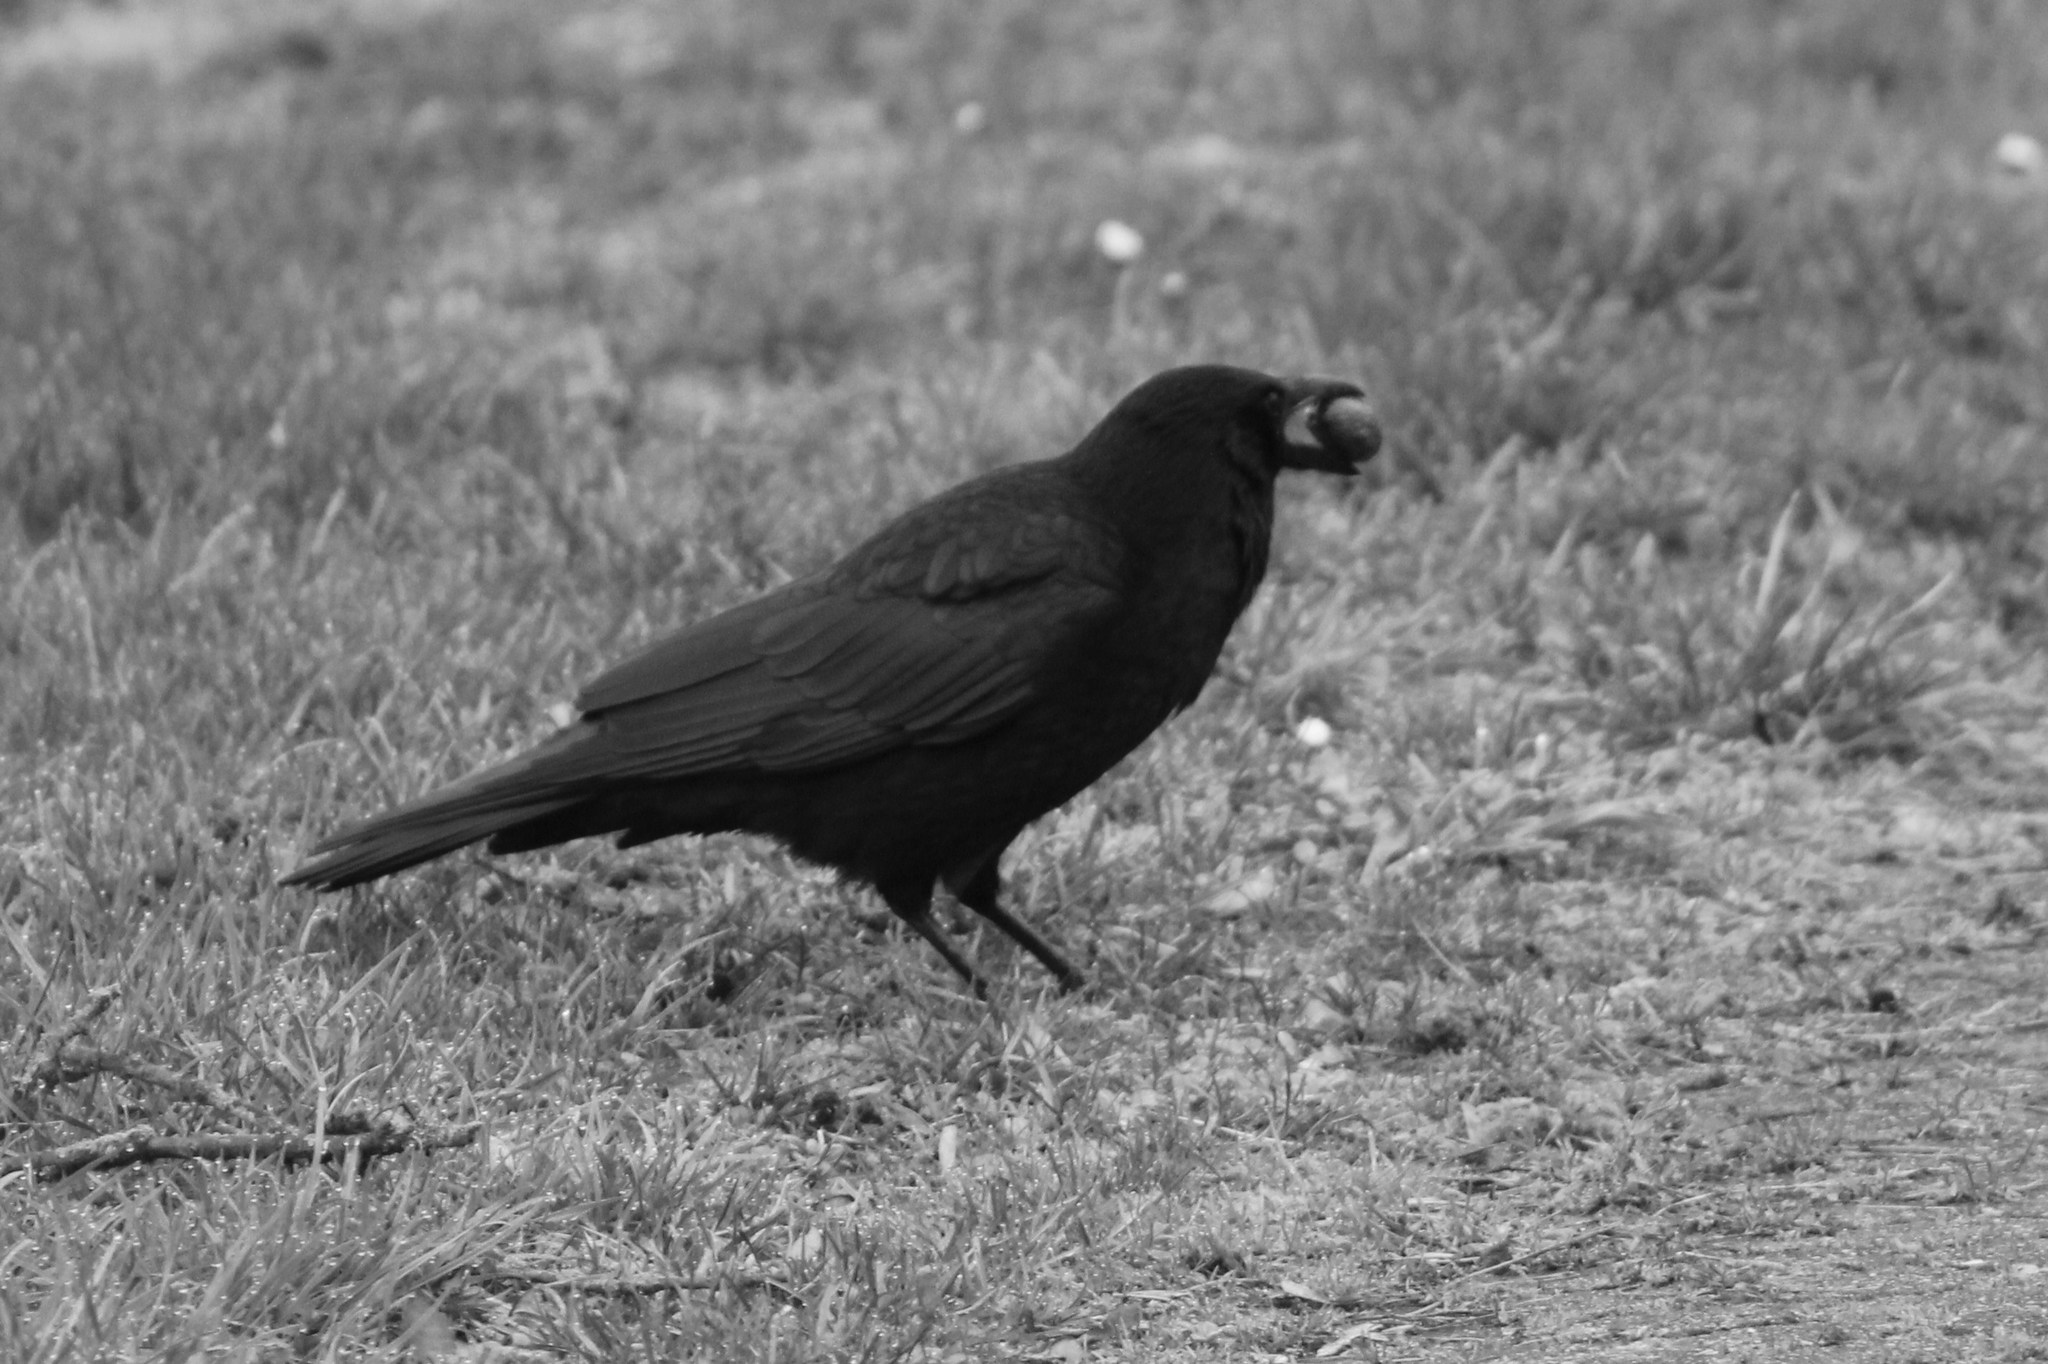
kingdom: Animalia
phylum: Chordata
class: Aves
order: Passeriformes
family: Corvidae
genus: Corvus
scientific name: Corvus corone
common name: Carrion crow
